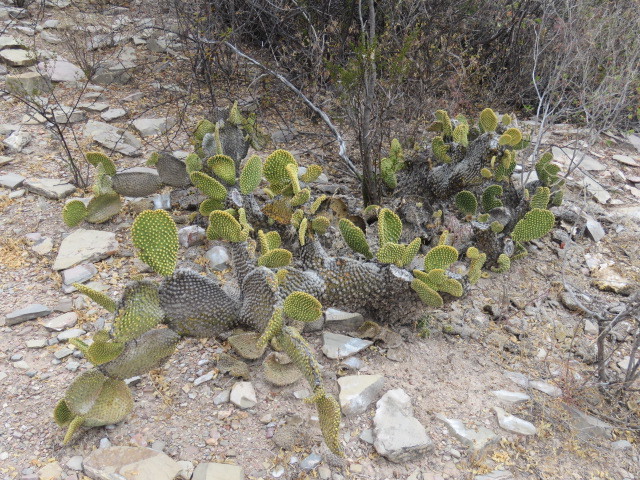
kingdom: Plantae
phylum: Tracheophyta
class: Magnoliopsida
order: Caryophyllales
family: Cactaceae
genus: Opuntia
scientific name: Opuntia microdasys
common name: Angel's-wings
